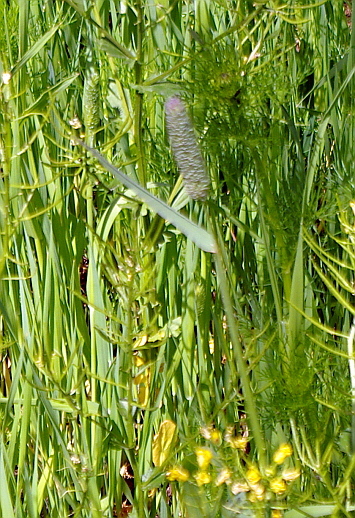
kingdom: Plantae
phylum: Tracheophyta
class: Liliopsida
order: Poales
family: Poaceae
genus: Phleum
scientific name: Phleum pratense
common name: Timothy grass
